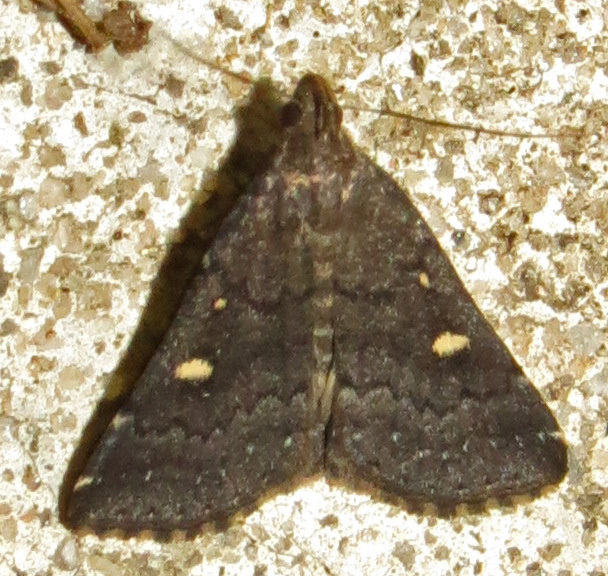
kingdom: Animalia
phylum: Arthropoda
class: Insecta
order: Lepidoptera
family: Erebidae
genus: Tetanolita
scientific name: Tetanolita mynesalis
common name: Smoky tetanolita moth
